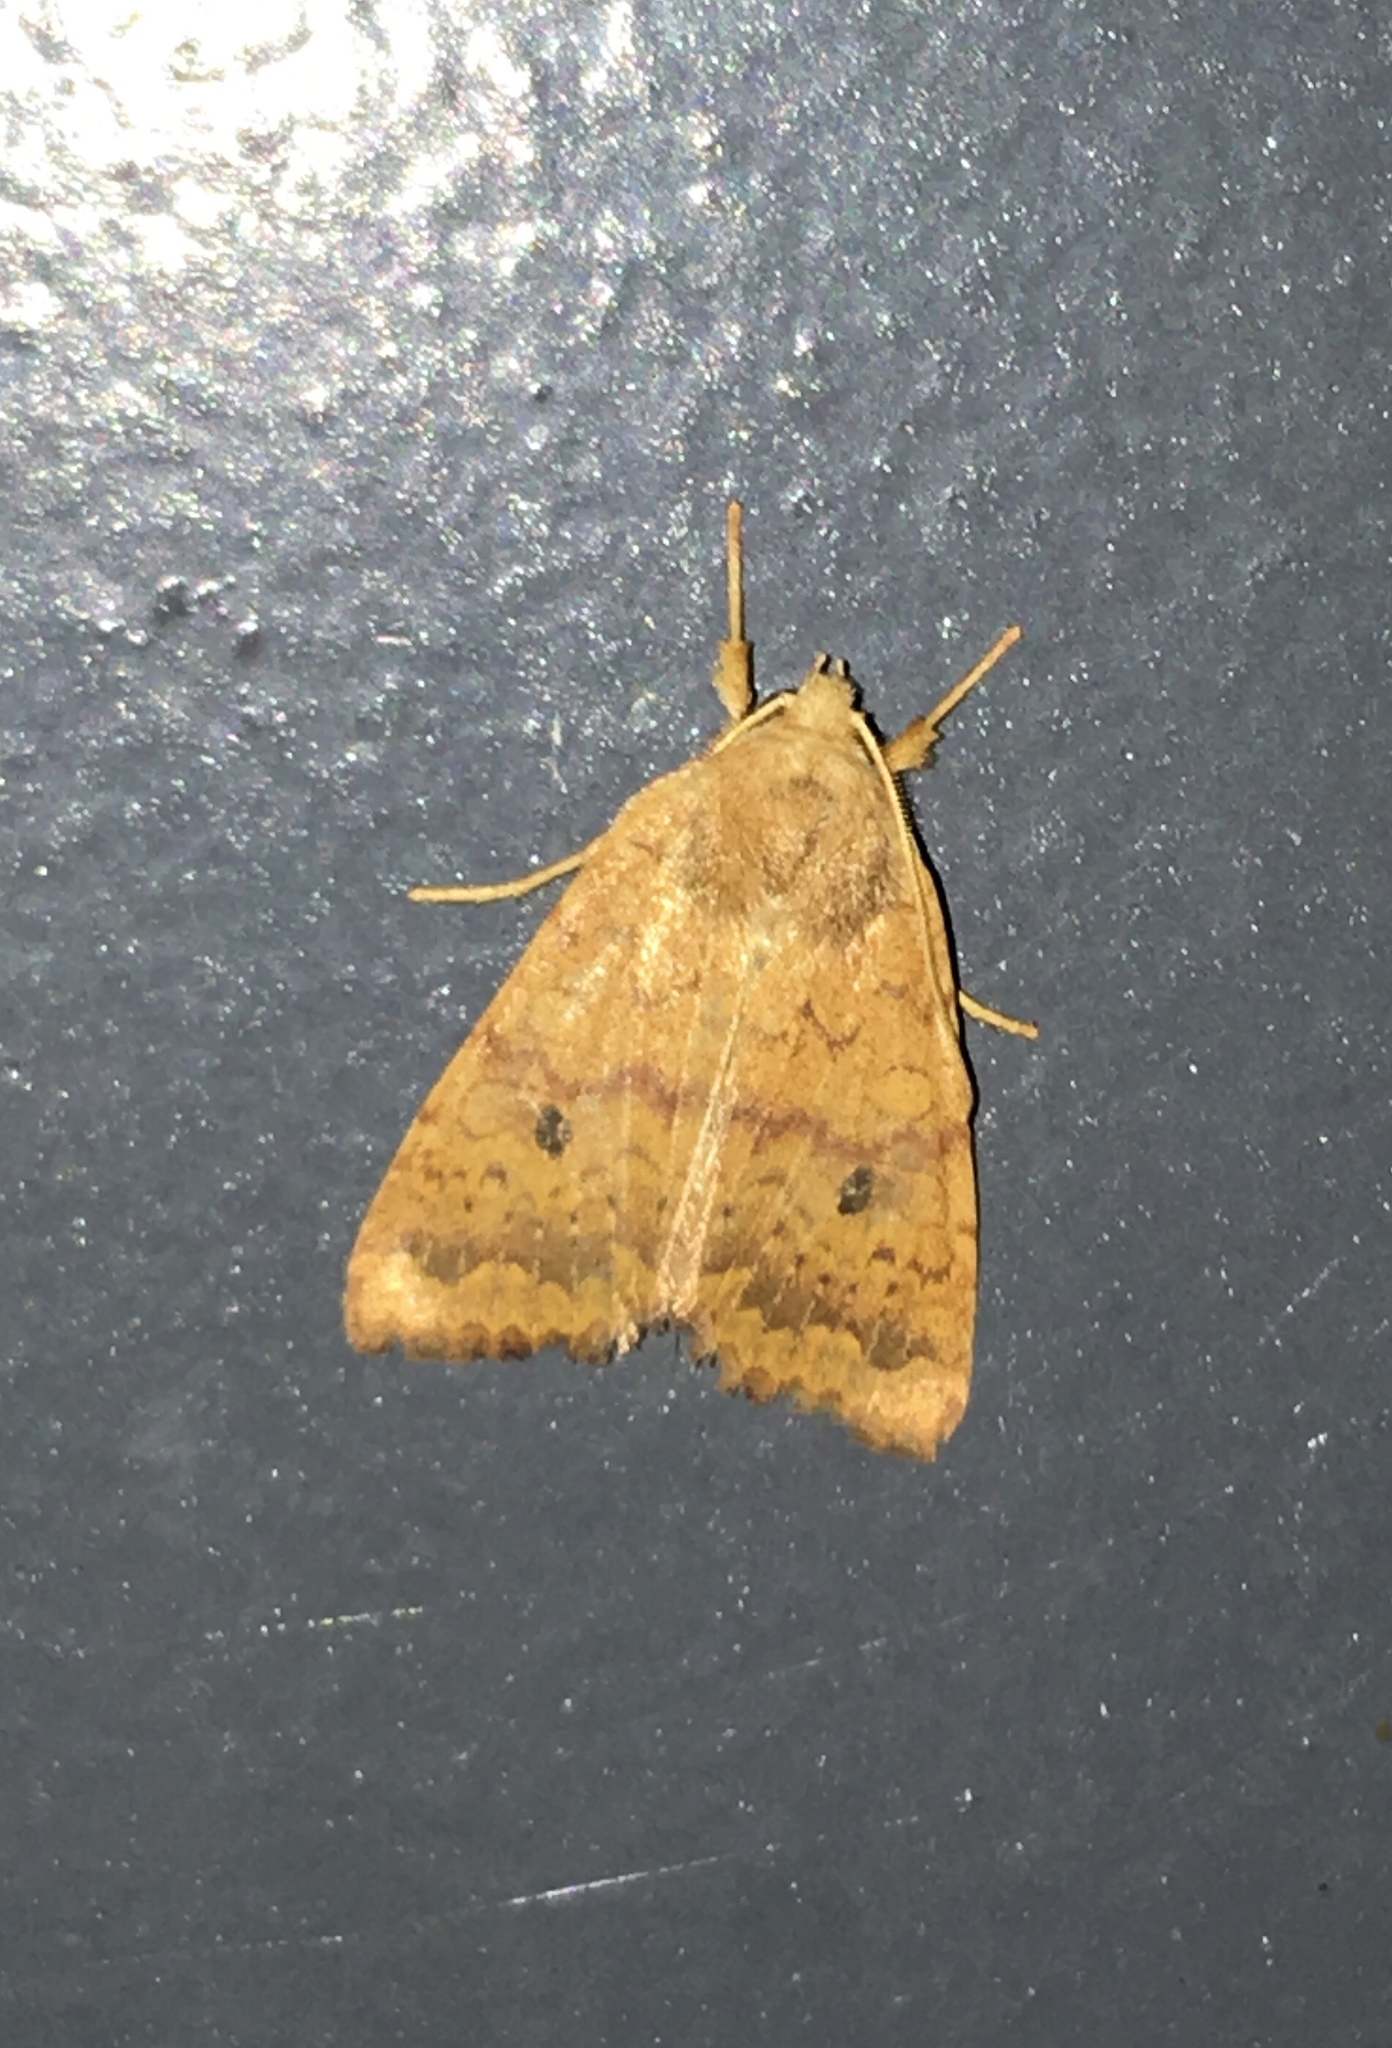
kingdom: Animalia
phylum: Arthropoda
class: Insecta
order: Lepidoptera
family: Noctuidae
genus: Agrochola
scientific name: Agrochola bicolorago
